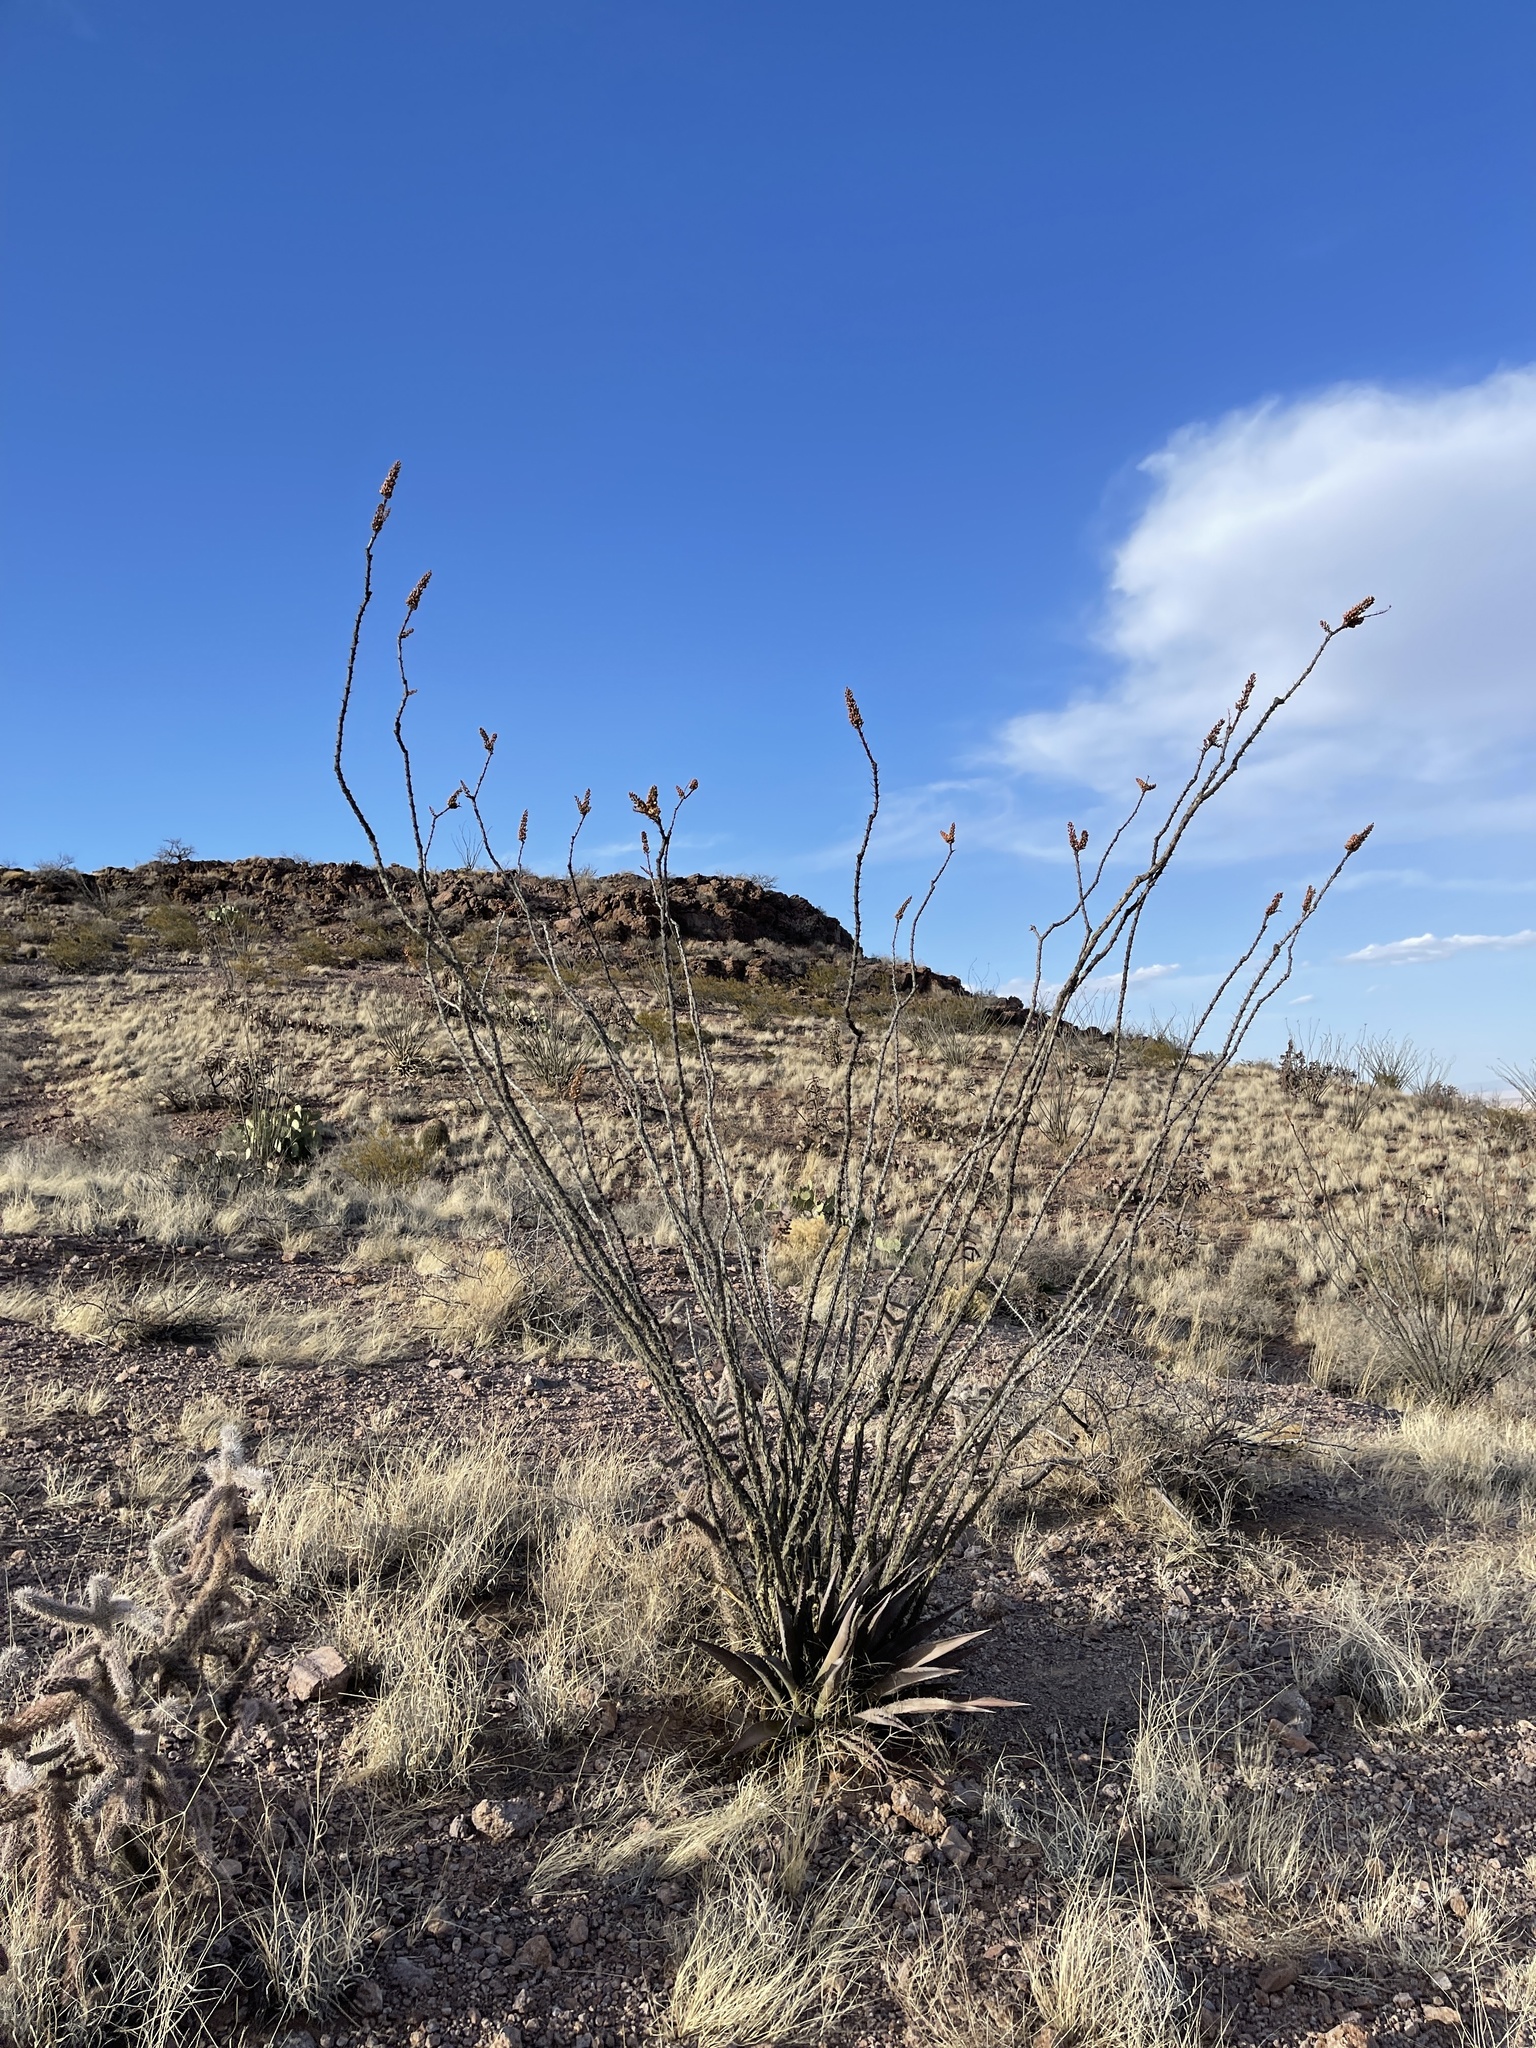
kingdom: Plantae
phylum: Tracheophyta
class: Magnoliopsida
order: Ericales
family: Fouquieriaceae
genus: Fouquieria
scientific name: Fouquieria splendens
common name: Vine-cactus
